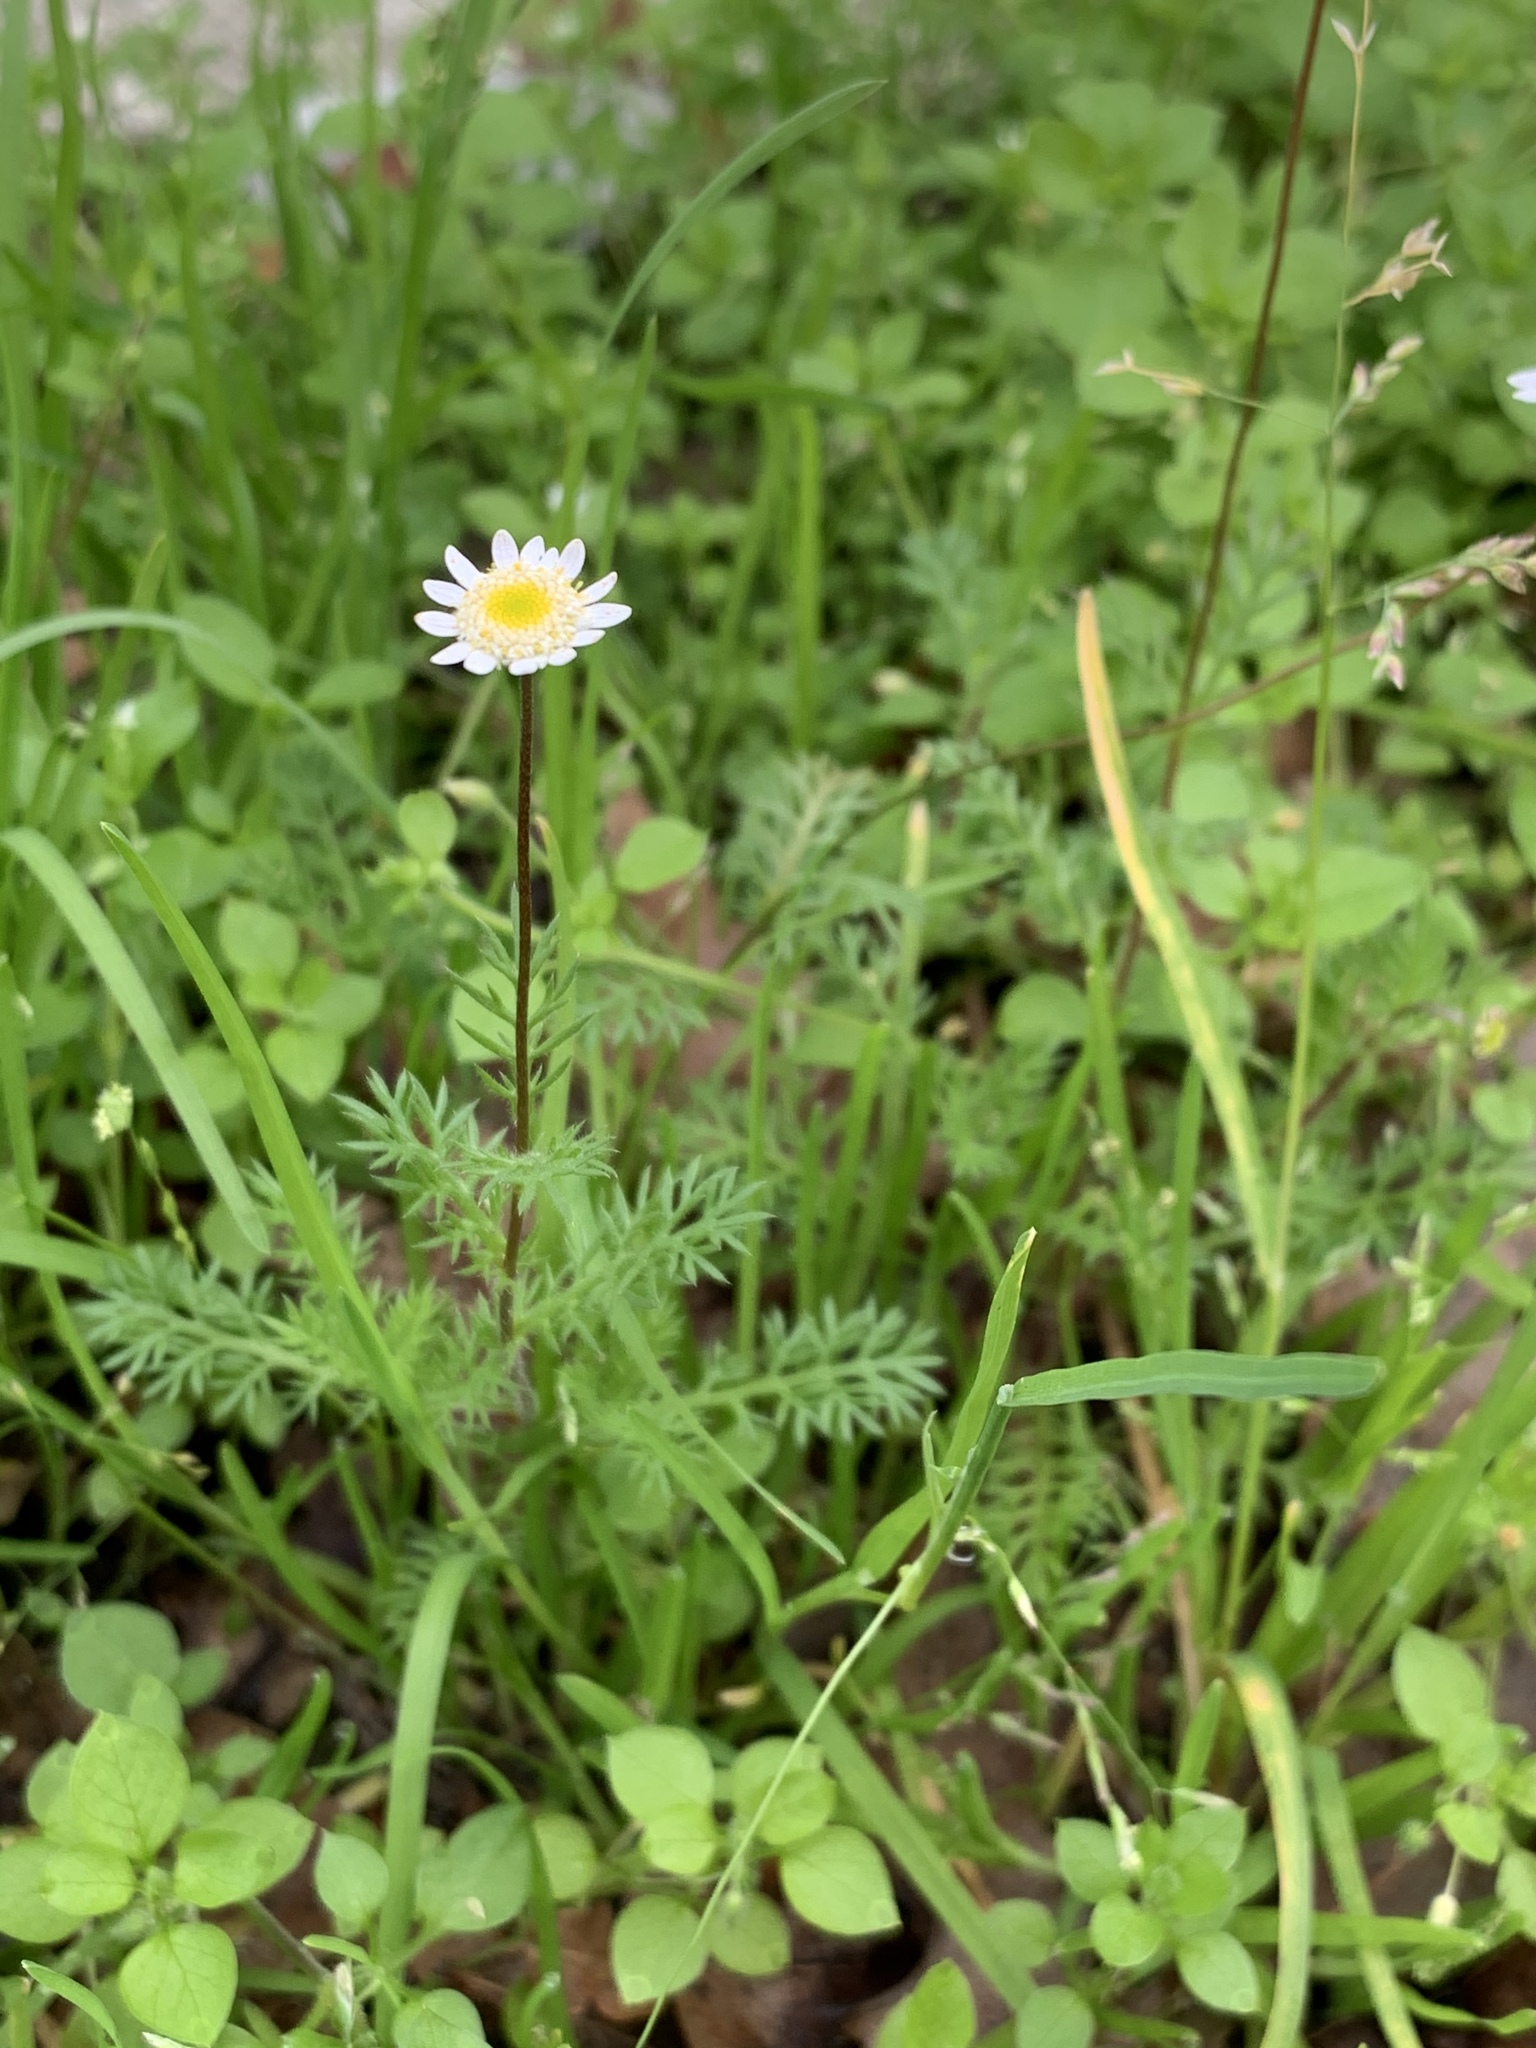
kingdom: Plantae
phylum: Tracheophyta
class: Magnoliopsida
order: Asterales
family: Asteraceae
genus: Cotula
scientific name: Cotula turbinata
